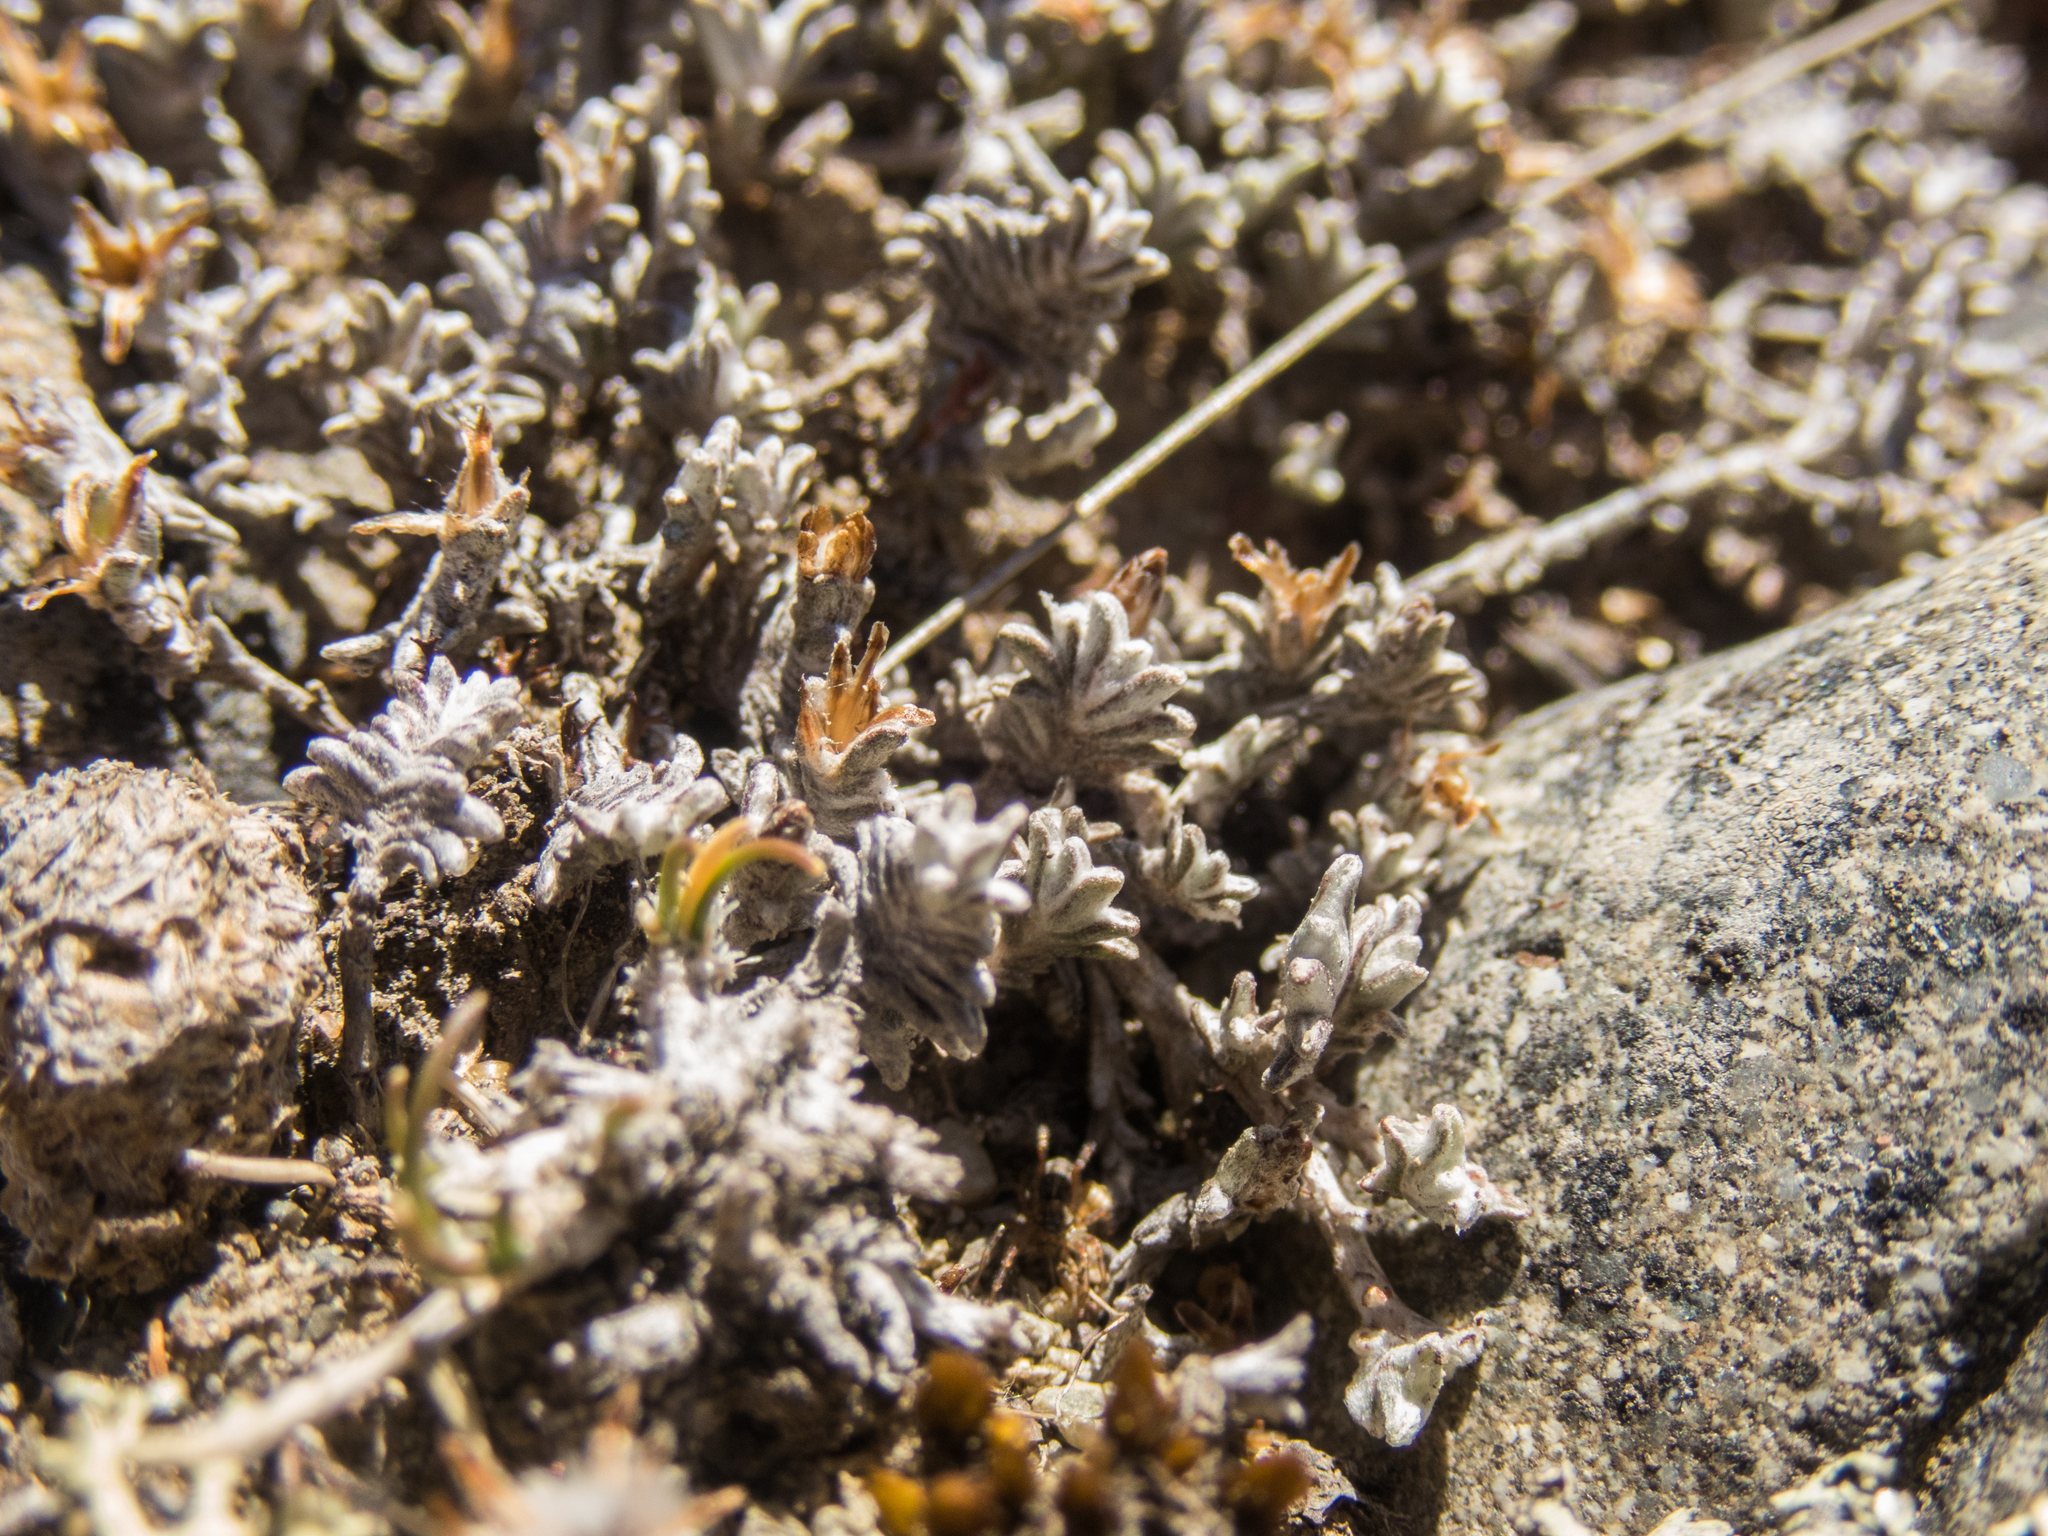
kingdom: Plantae
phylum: Tracheophyta
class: Magnoliopsida
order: Asterales
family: Asteraceae
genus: Raoulia
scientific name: Raoulia monroi
